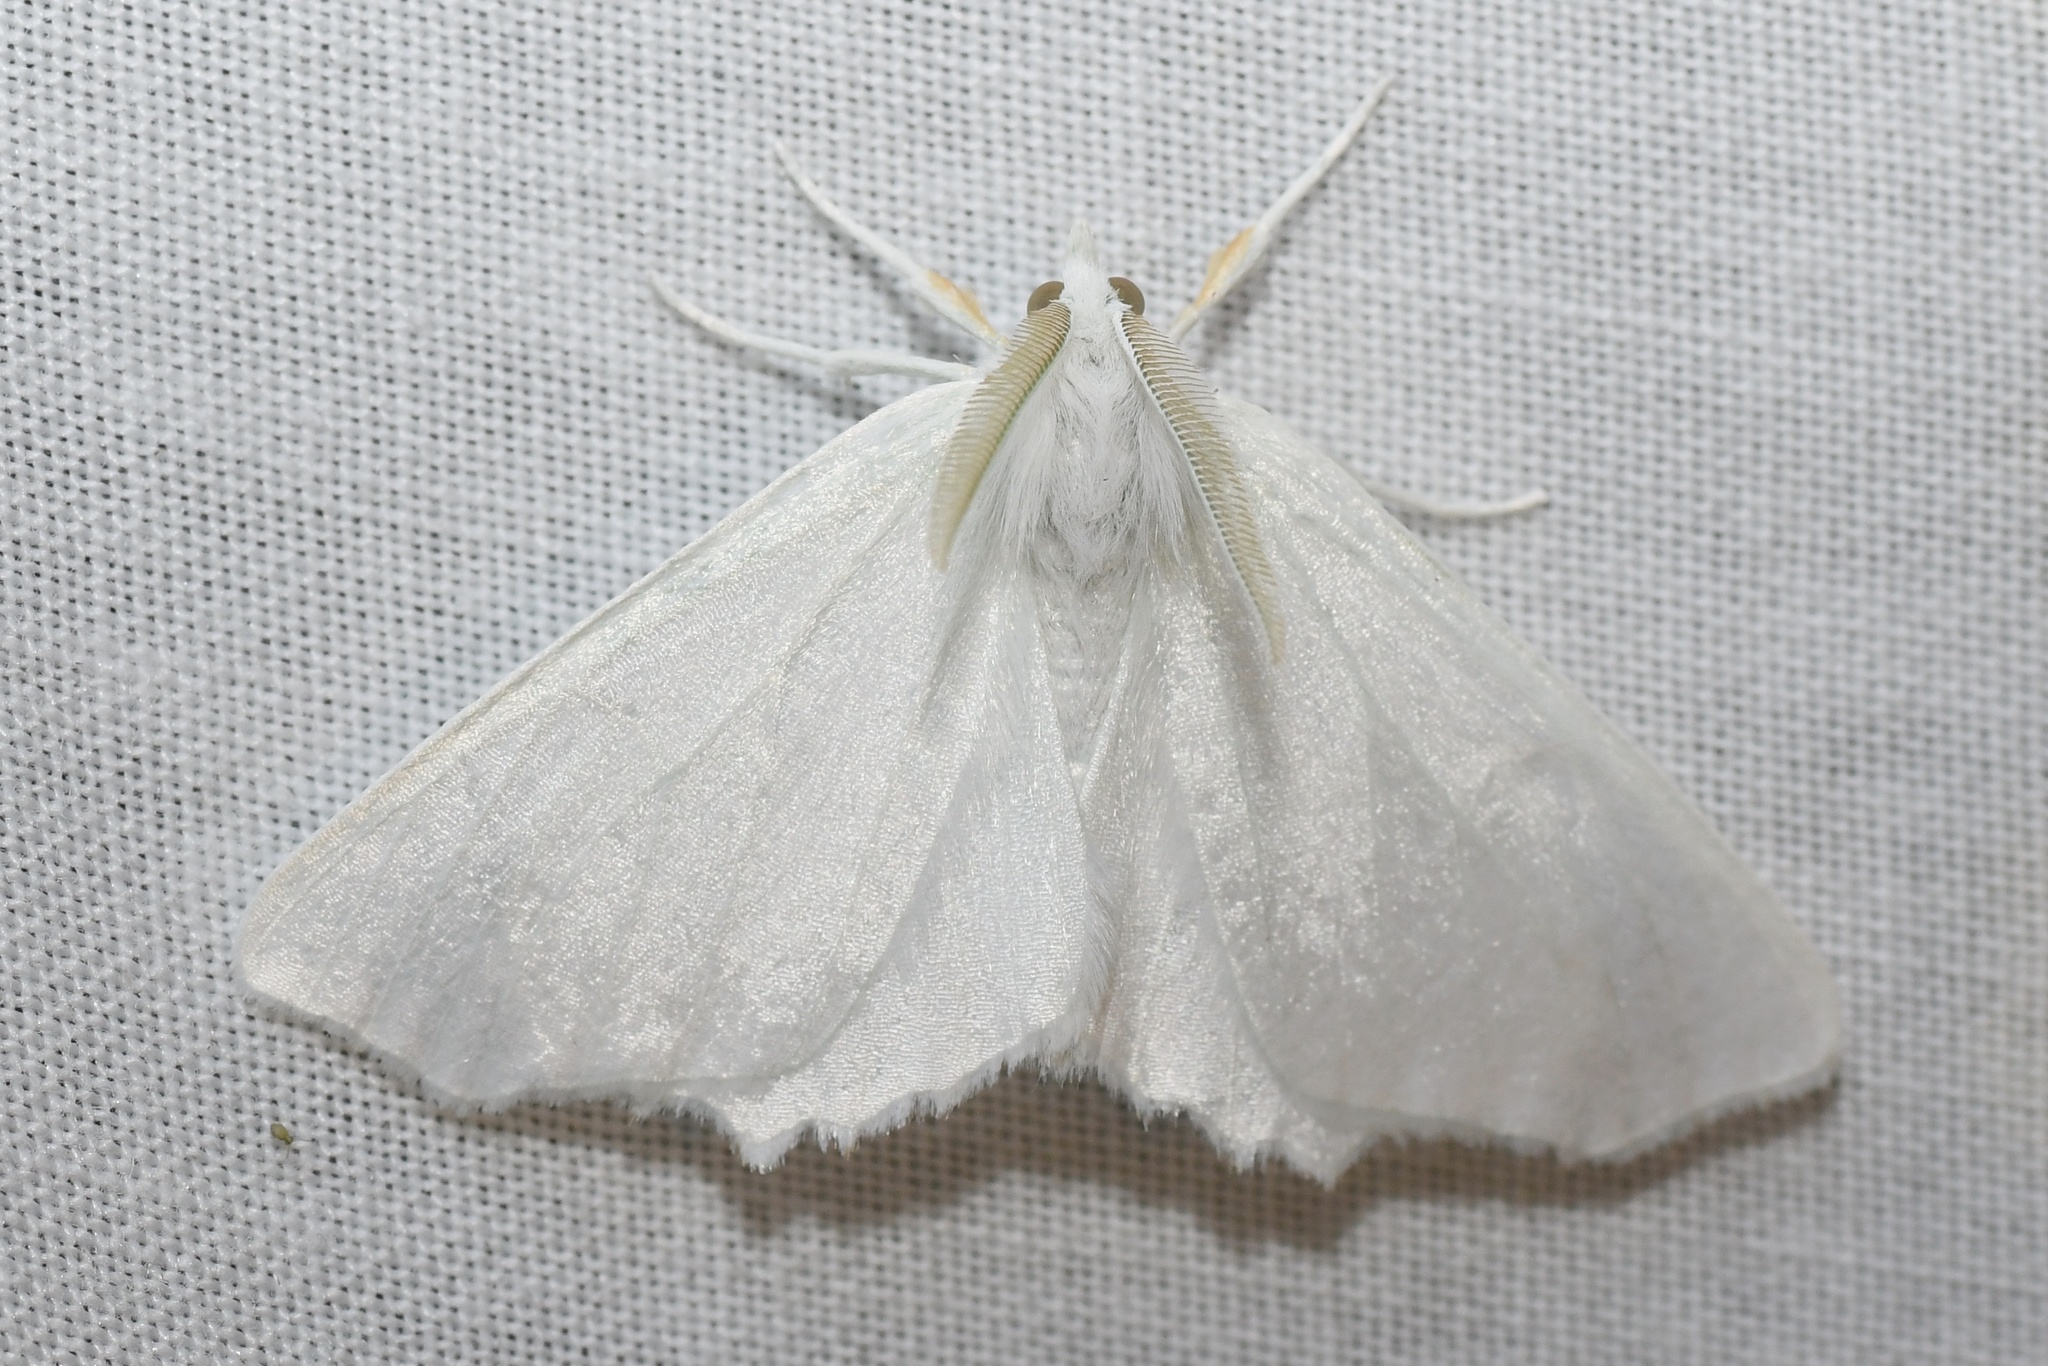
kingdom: Animalia
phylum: Arthropoda
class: Insecta
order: Lepidoptera
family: Geometridae
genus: Ennomos
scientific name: Ennomos subsignaria
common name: Elm spanworm
